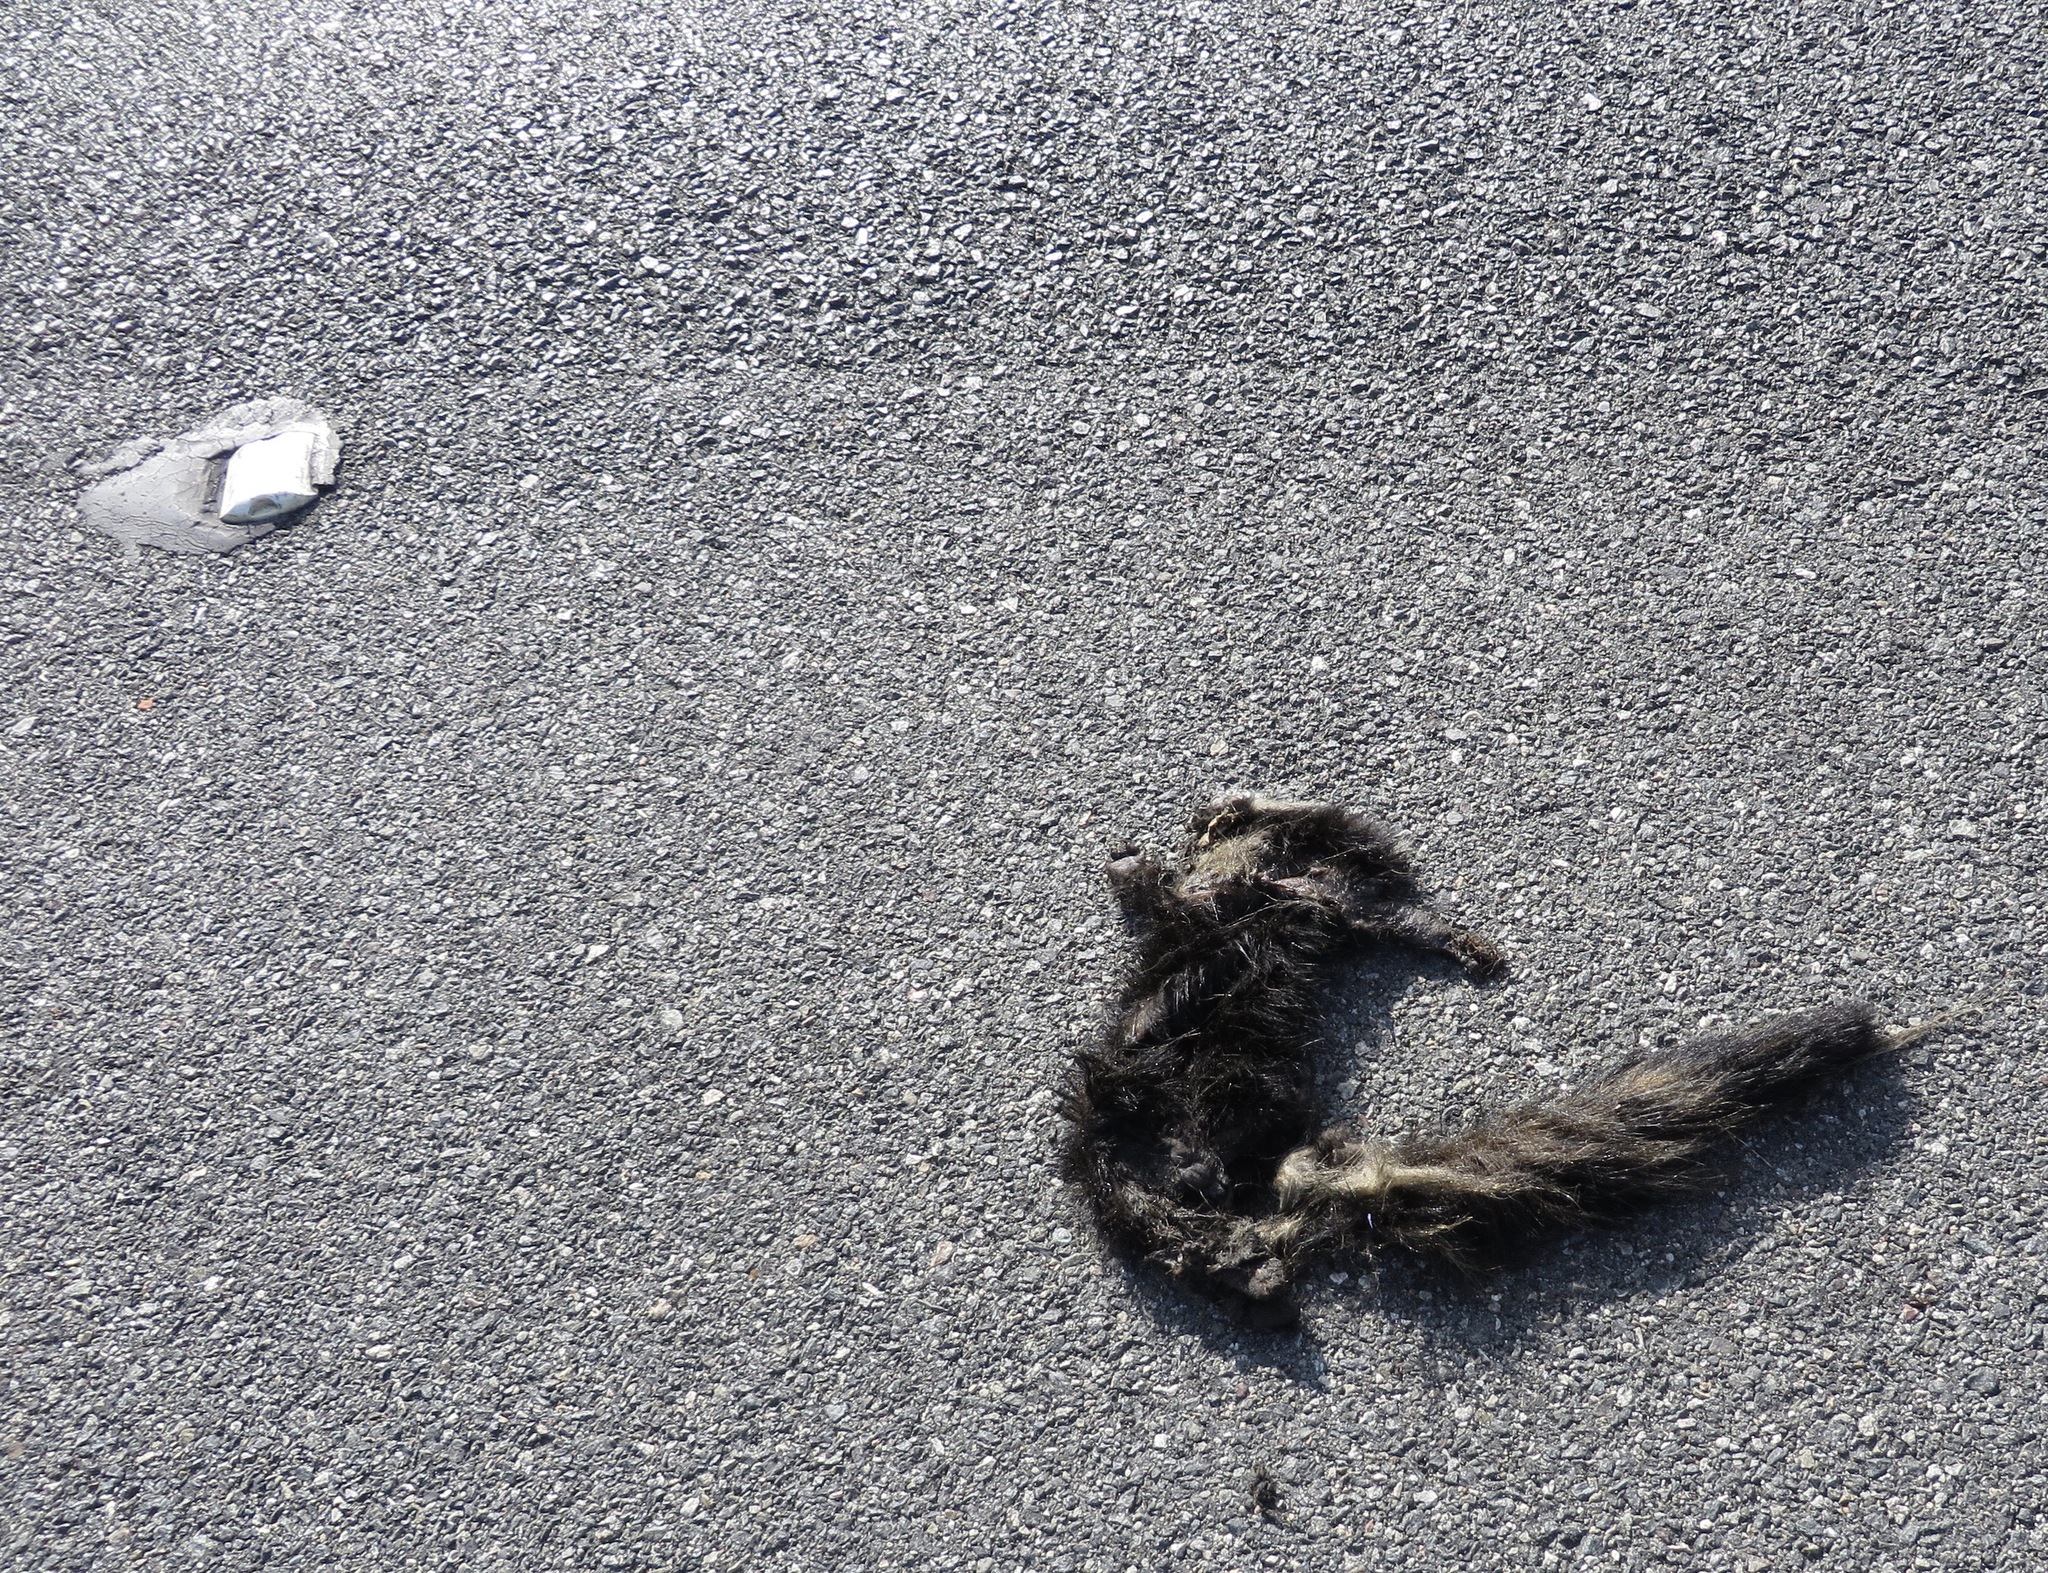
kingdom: Animalia
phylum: Chordata
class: Mammalia
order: Carnivora
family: Mephitidae
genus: Mephitis
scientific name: Mephitis mephitis
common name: Striped skunk
